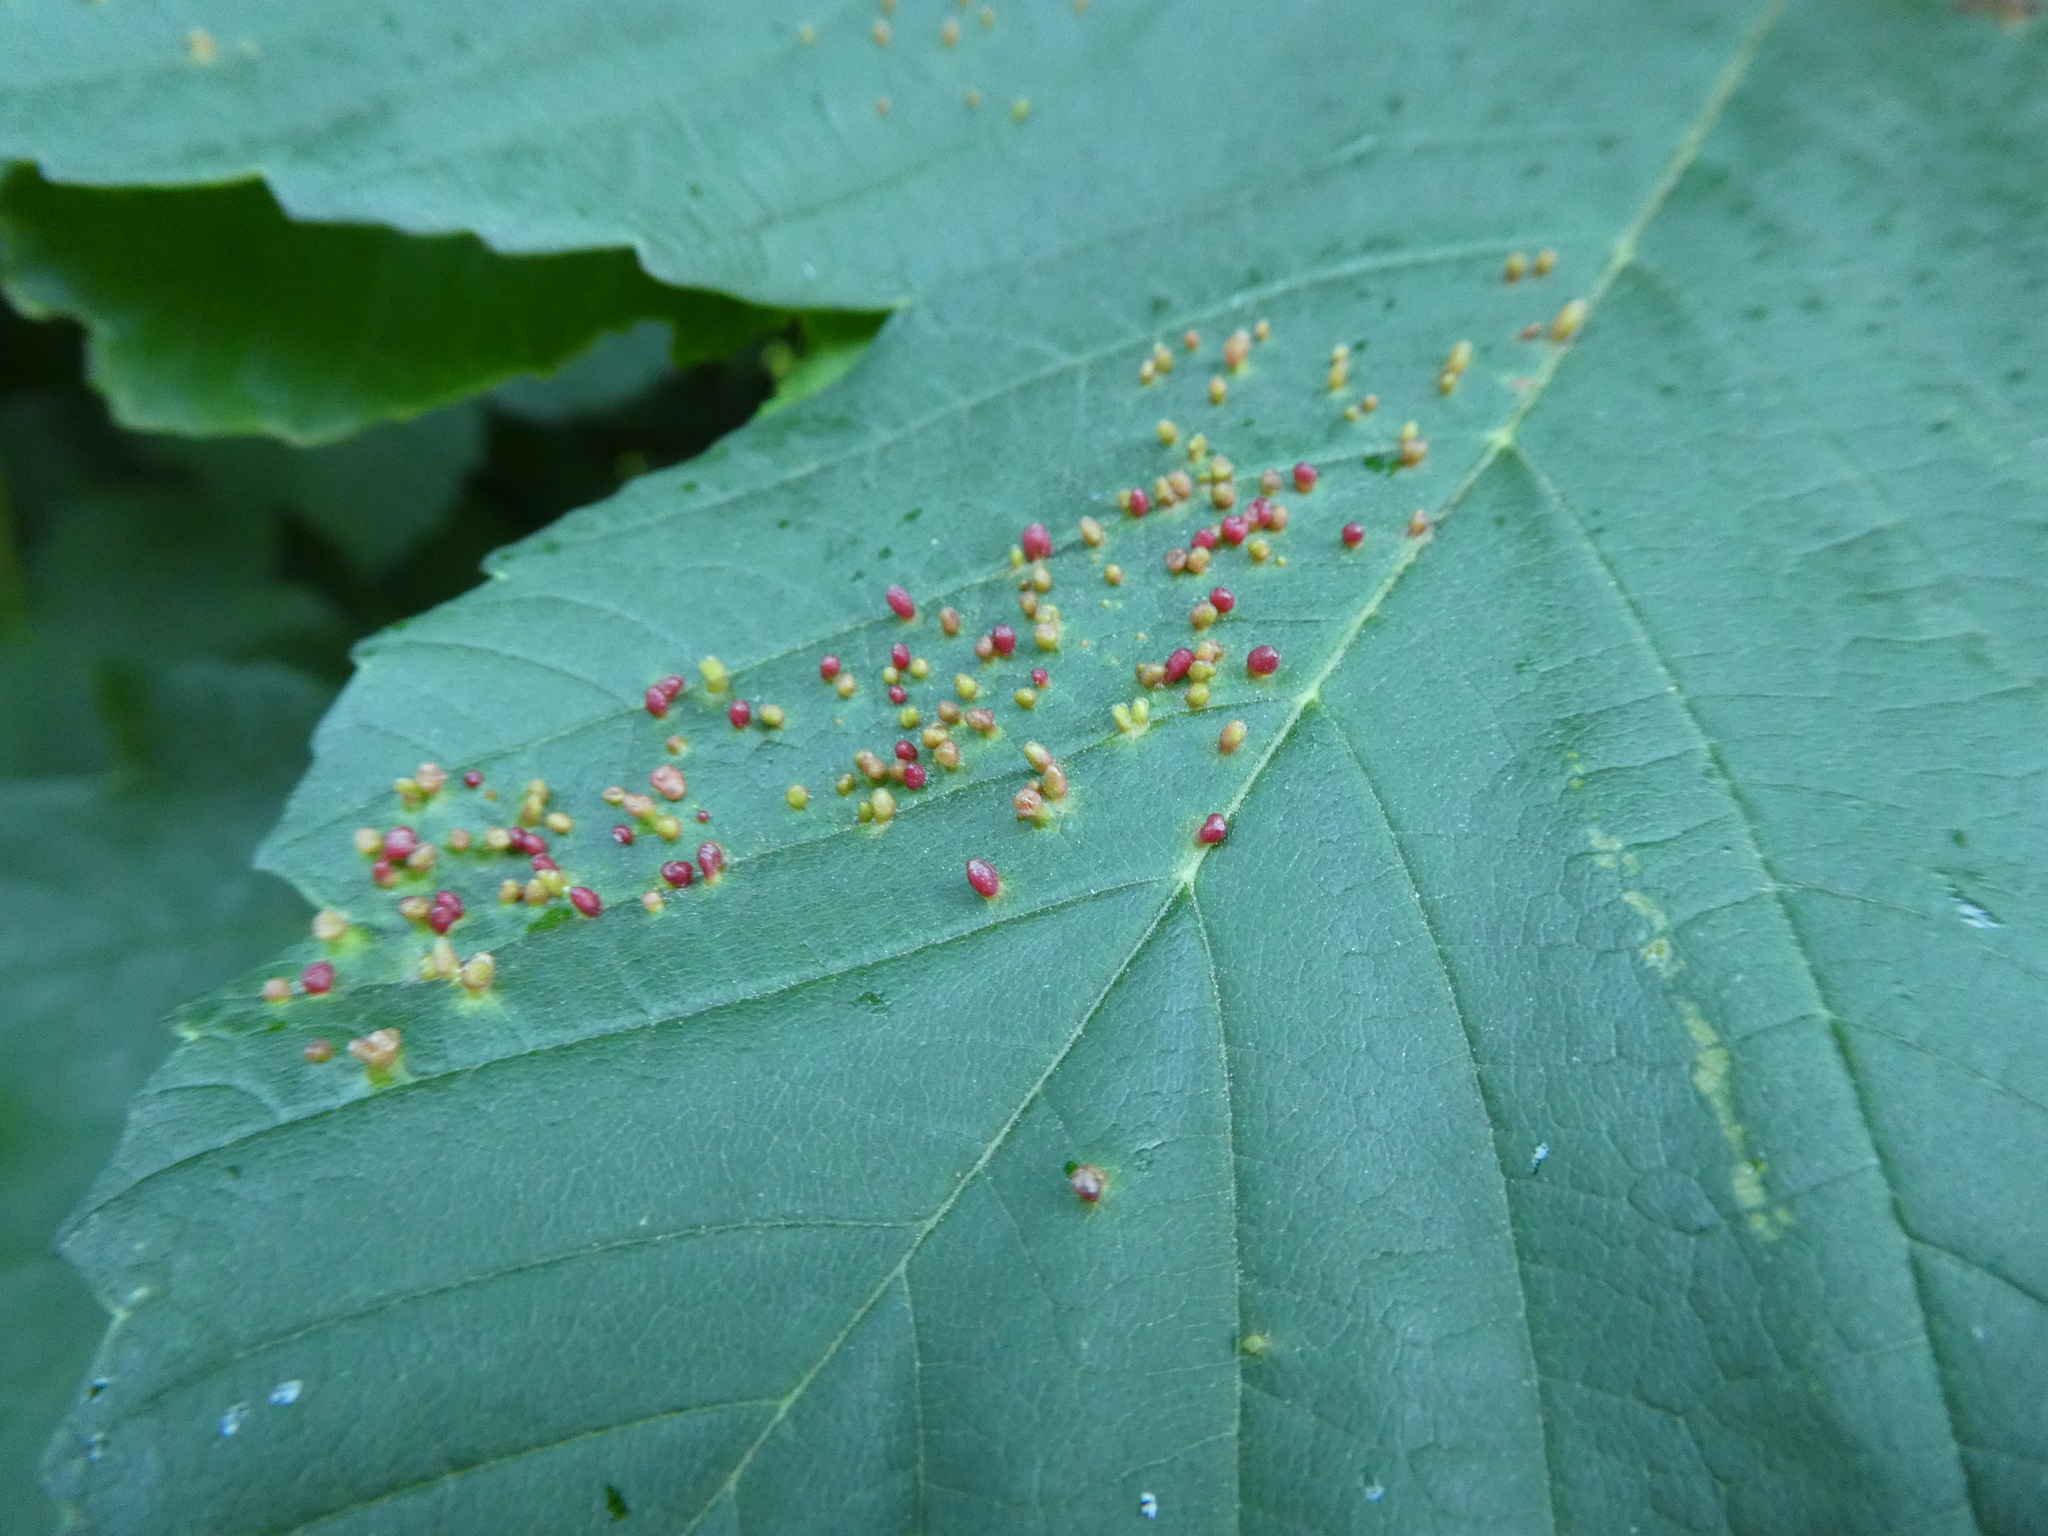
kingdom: Animalia
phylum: Arthropoda
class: Arachnida
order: Trombidiformes
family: Eriophyidae
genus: Aceria
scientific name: Aceria cephaloneus
